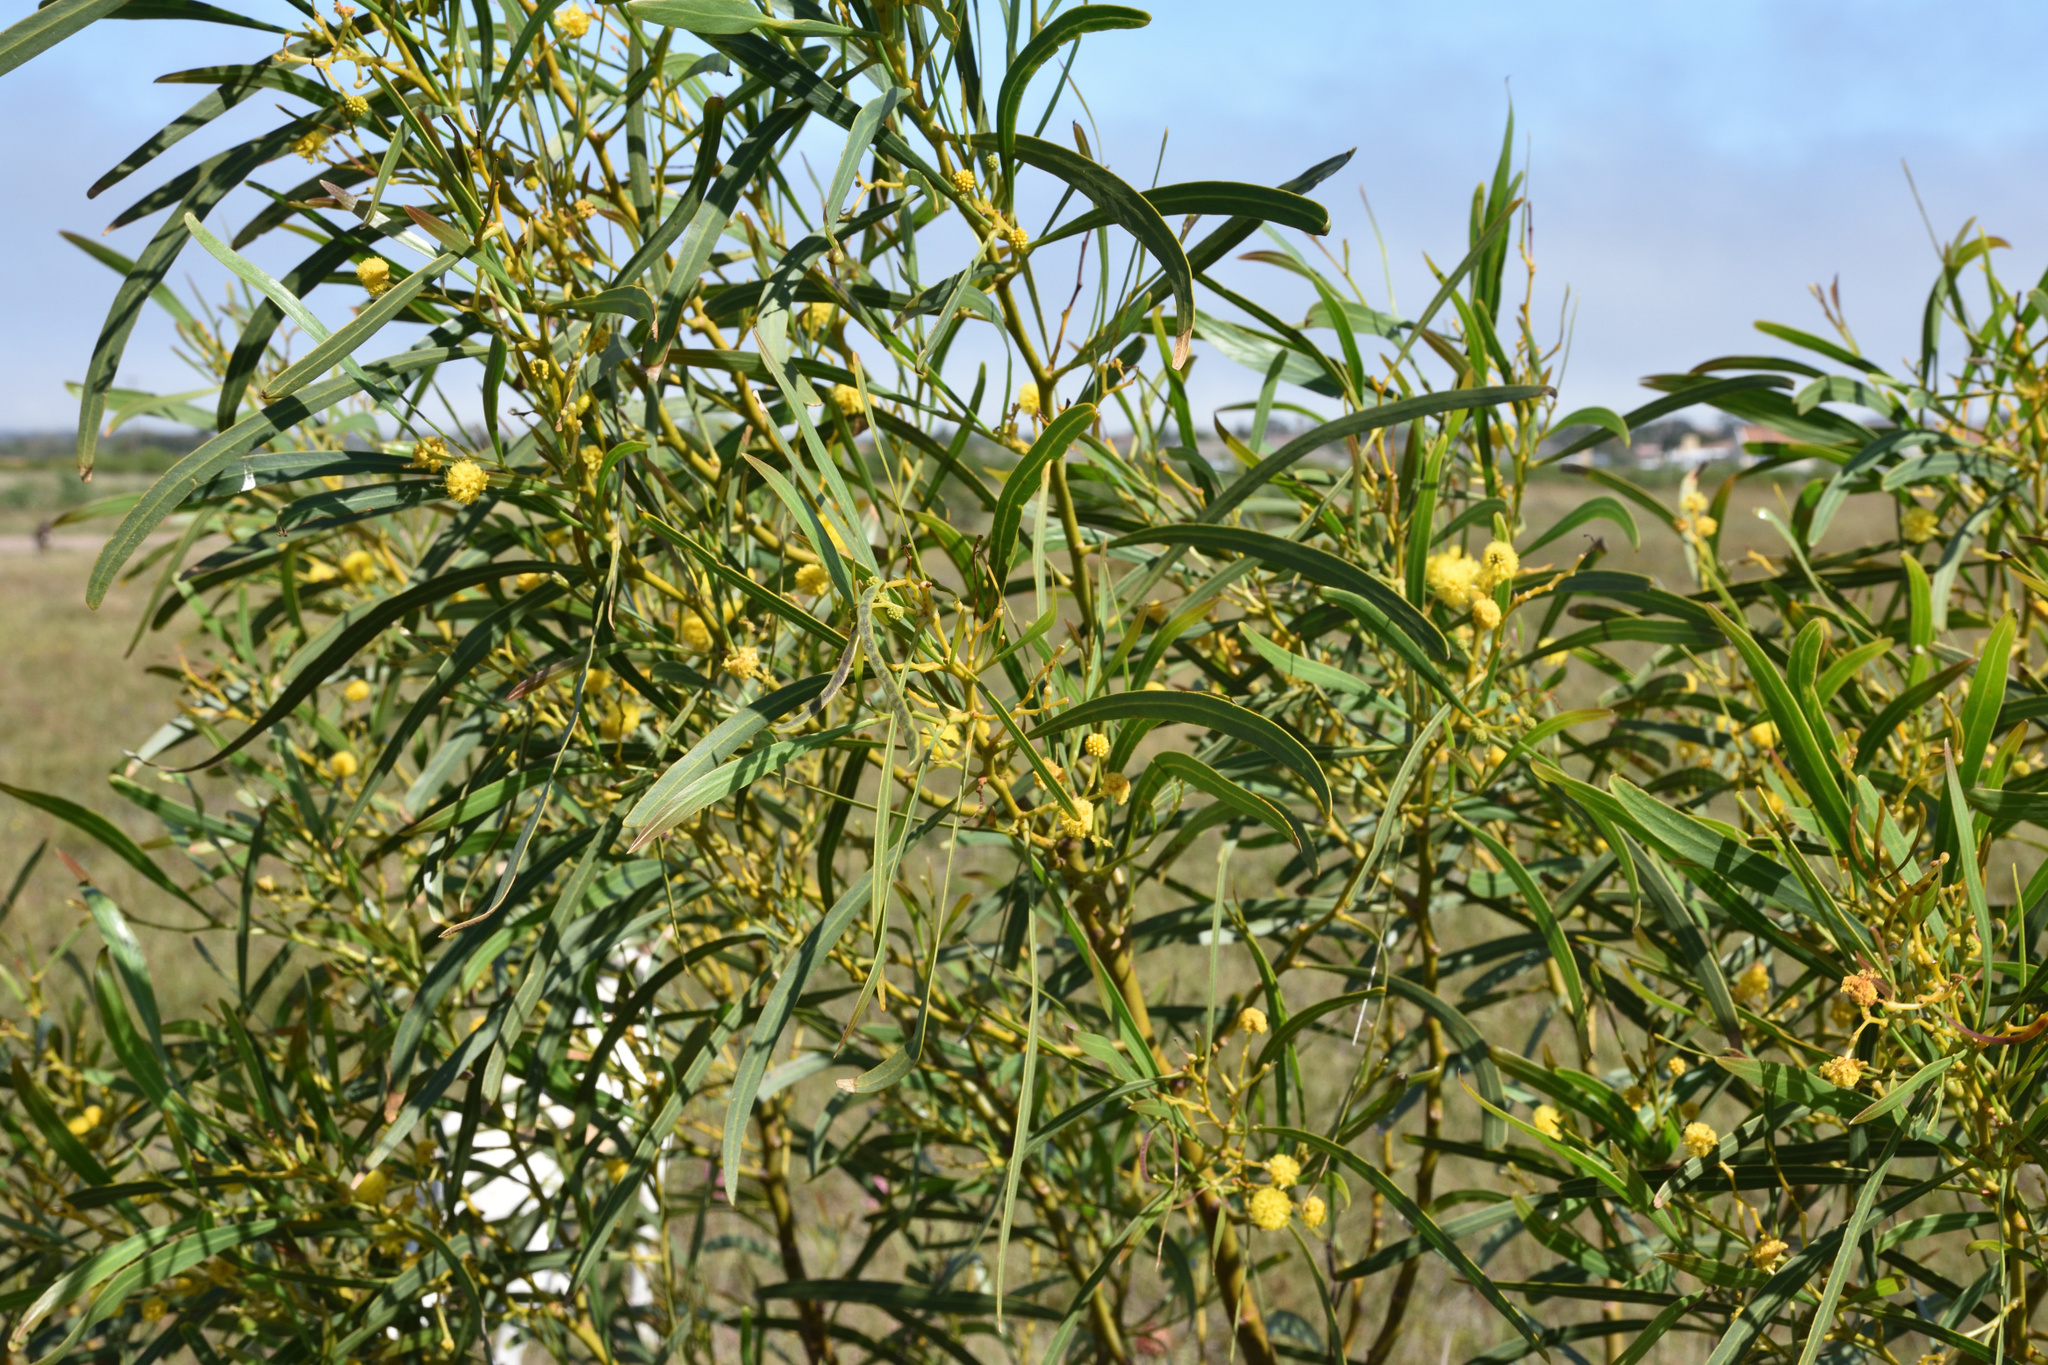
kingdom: Plantae
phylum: Tracheophyta
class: Magnoliopsida
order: Fabales
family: Fabaceae
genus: Acacia
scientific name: Acacia saligna
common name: Orange wattle
